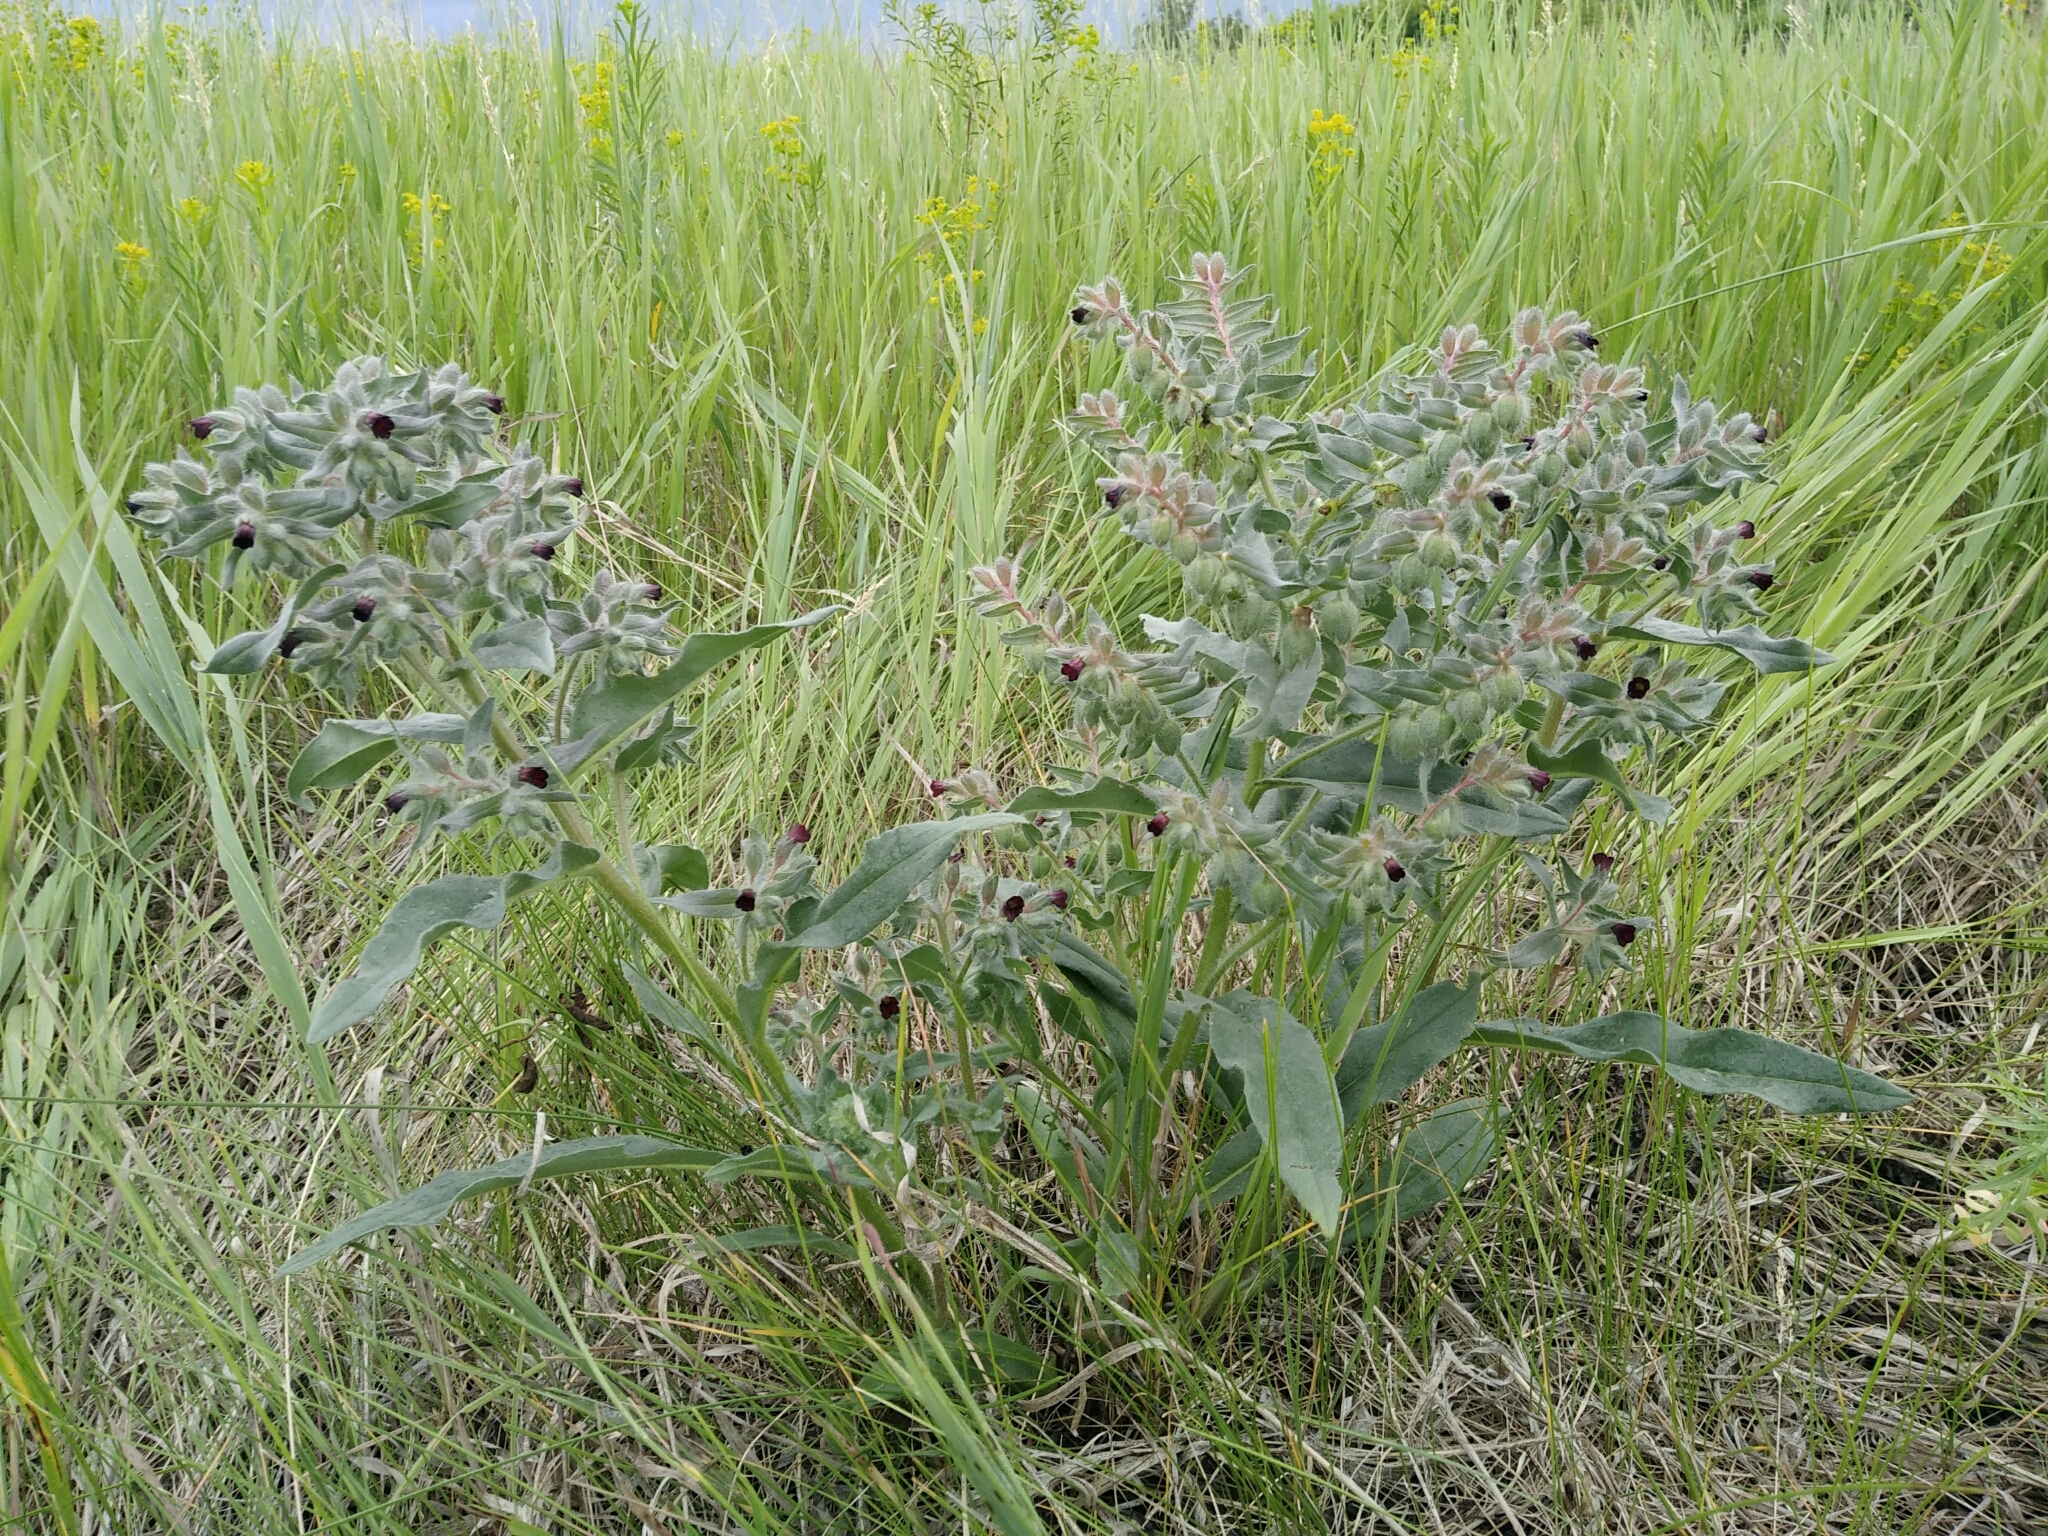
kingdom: Plantae
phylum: Tracheophyta
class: Magnoliopsida
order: Boraginales
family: Boraginaceae
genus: Nonea
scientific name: Nonea pulla
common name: Brown nonea
